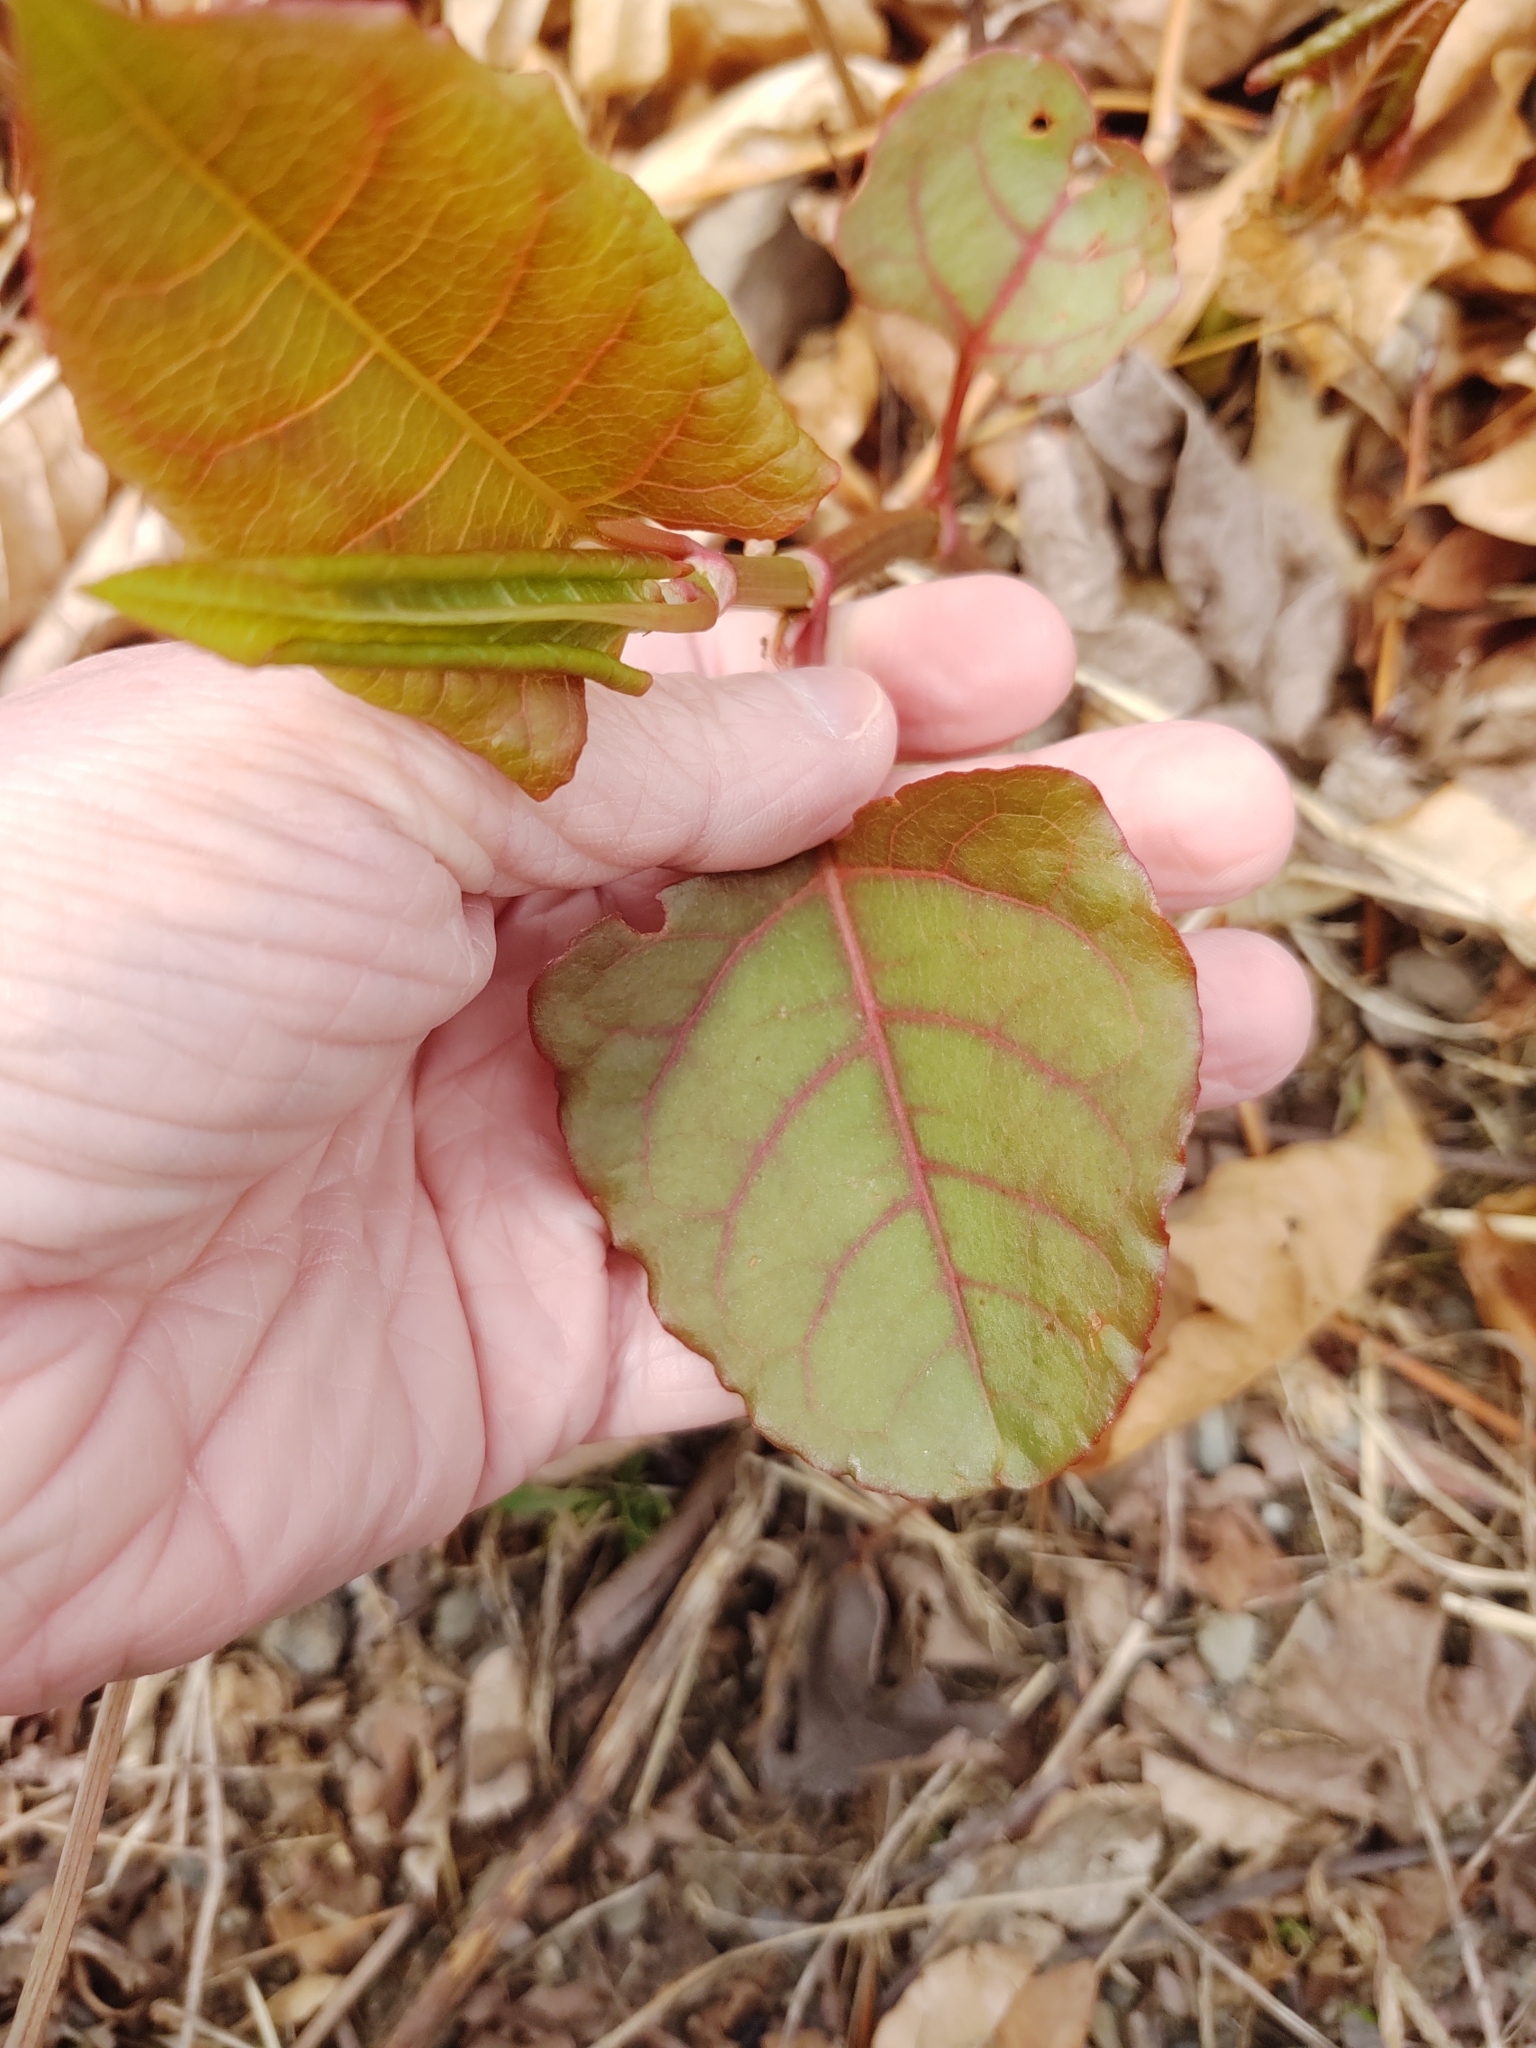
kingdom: Plantae
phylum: Tracheophyta
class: Magnoliopsida
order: Caryophyllales
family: Polygonaceae
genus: Reynoutria
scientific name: Reynoutria japonica
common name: Japanese knotweed
